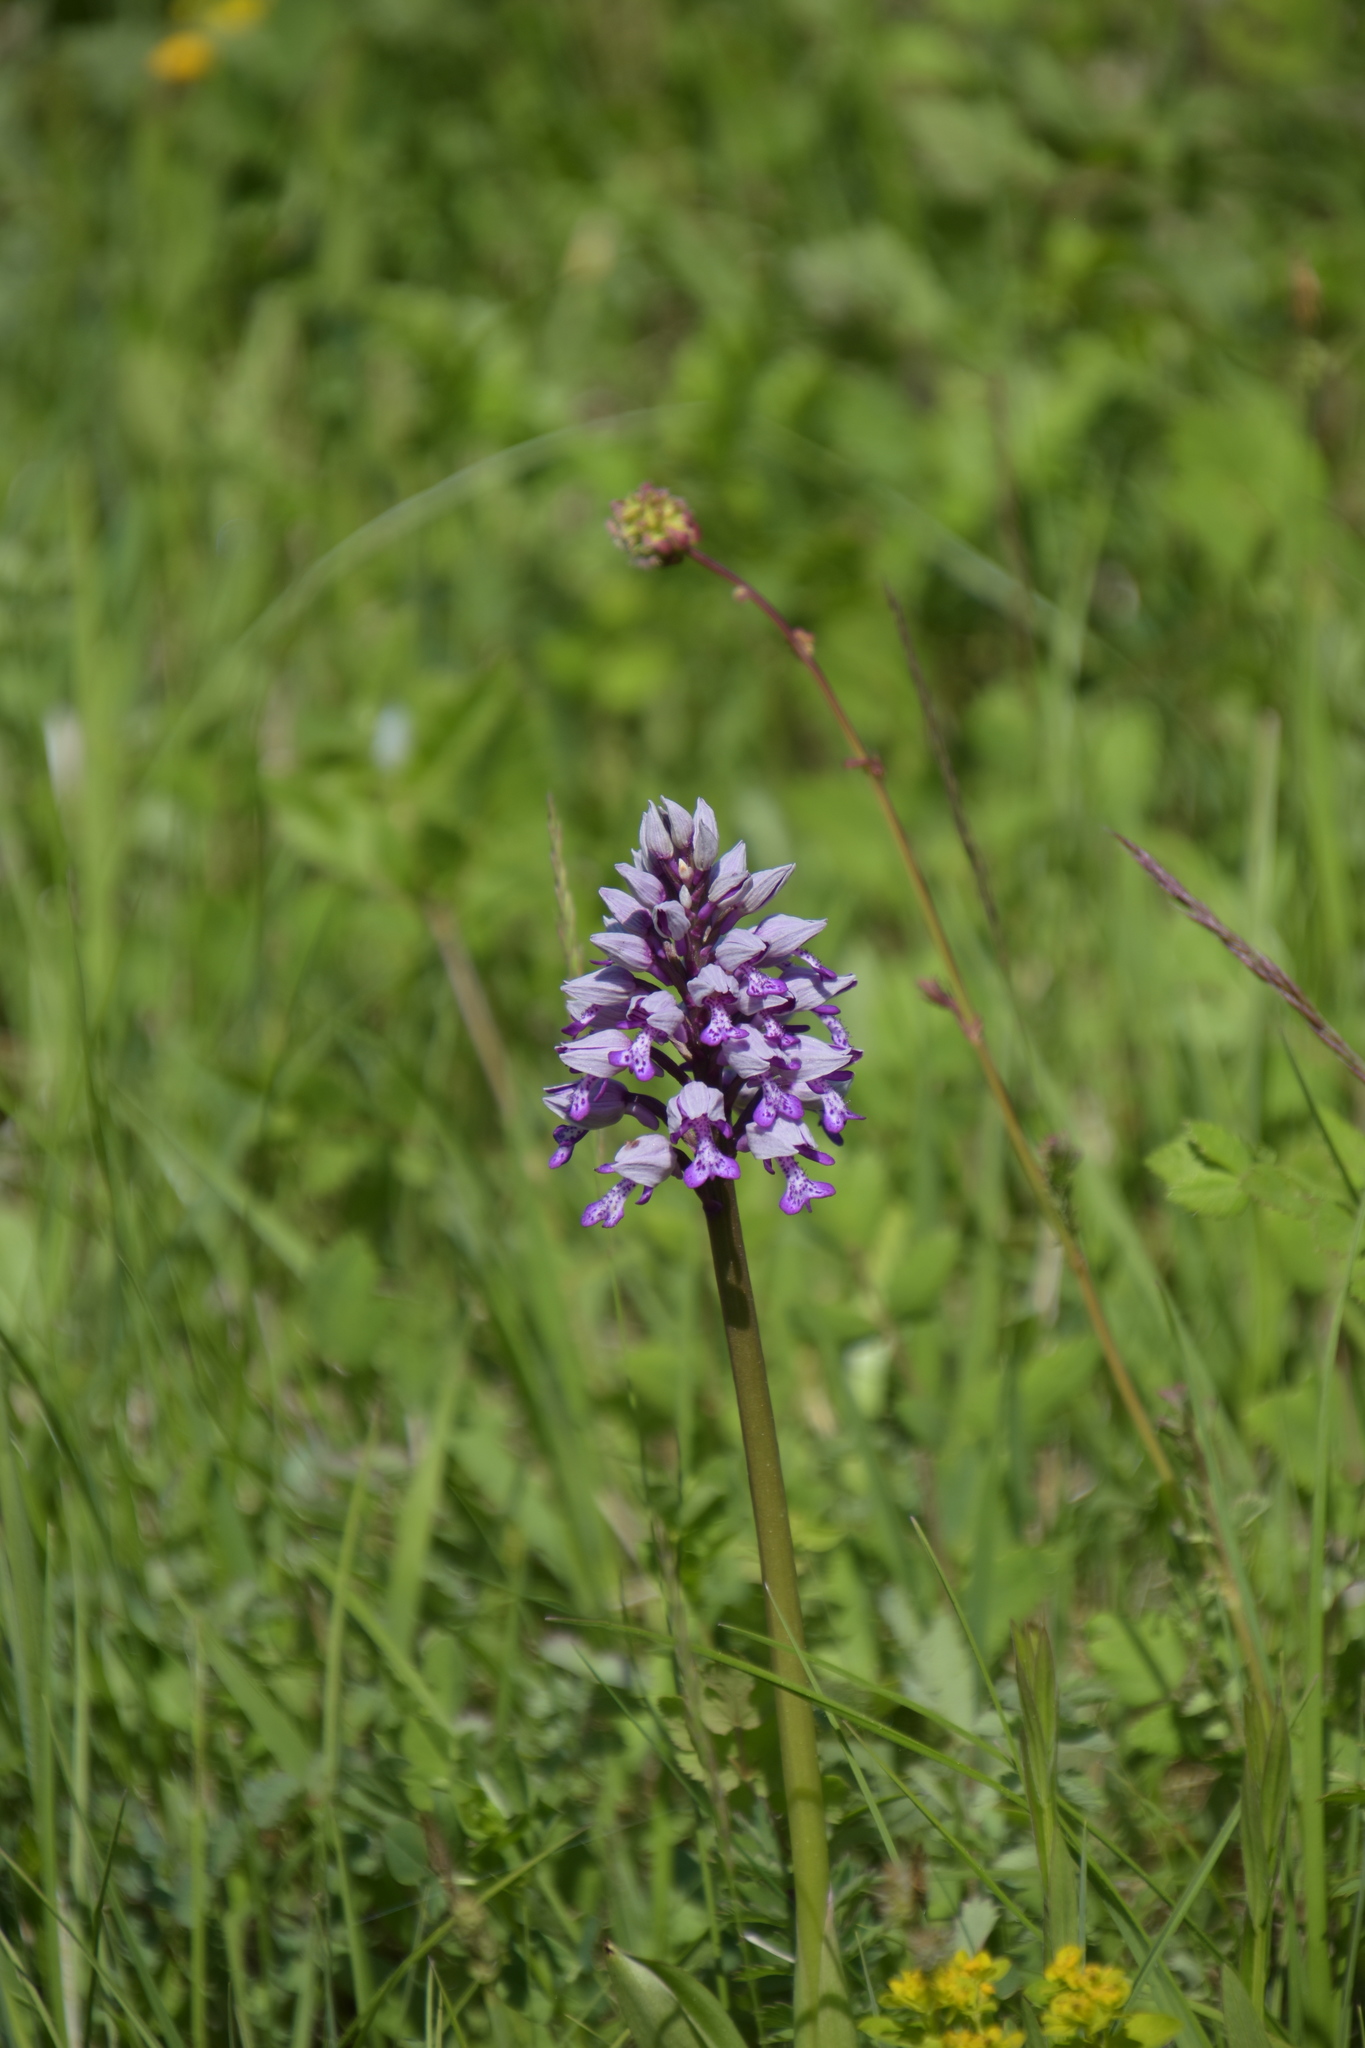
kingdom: Plantae
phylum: Tracheophyta
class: Liliopsida
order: Asparagales
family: Orchidaceae
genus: Orchis
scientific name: Orchis militaris
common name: Military orchid
